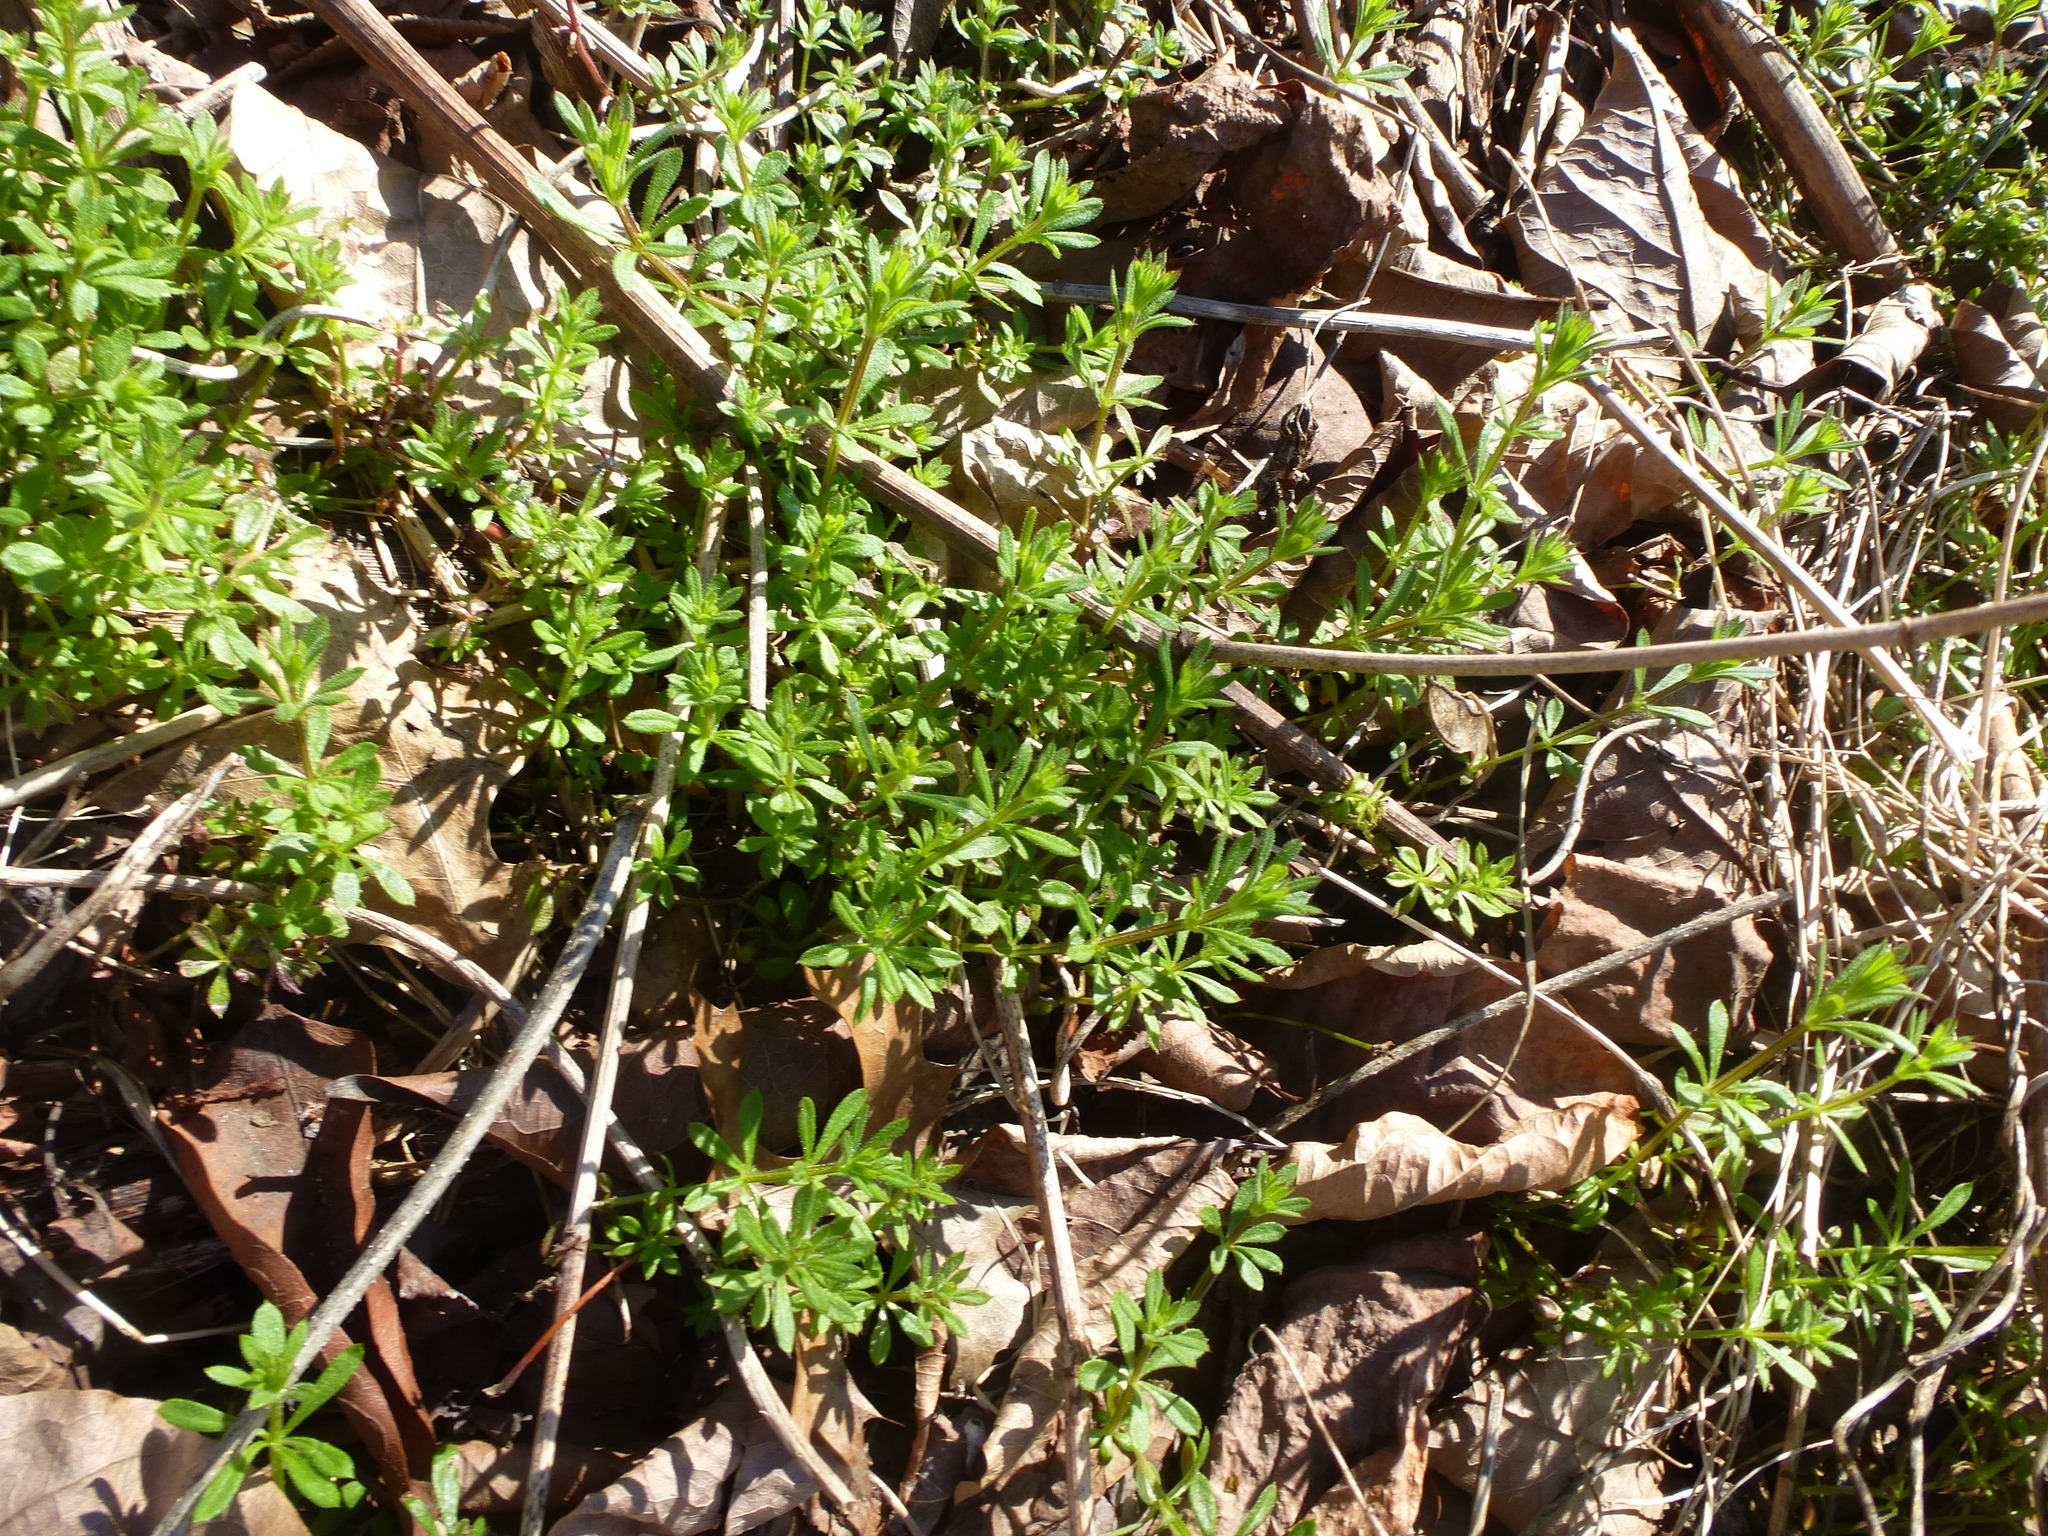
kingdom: Plantae
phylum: Tracheophyta
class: Magnoliopsida
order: Gentianales
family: Rubiaceae
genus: Galium
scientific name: Galium aparine
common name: Cleavers
